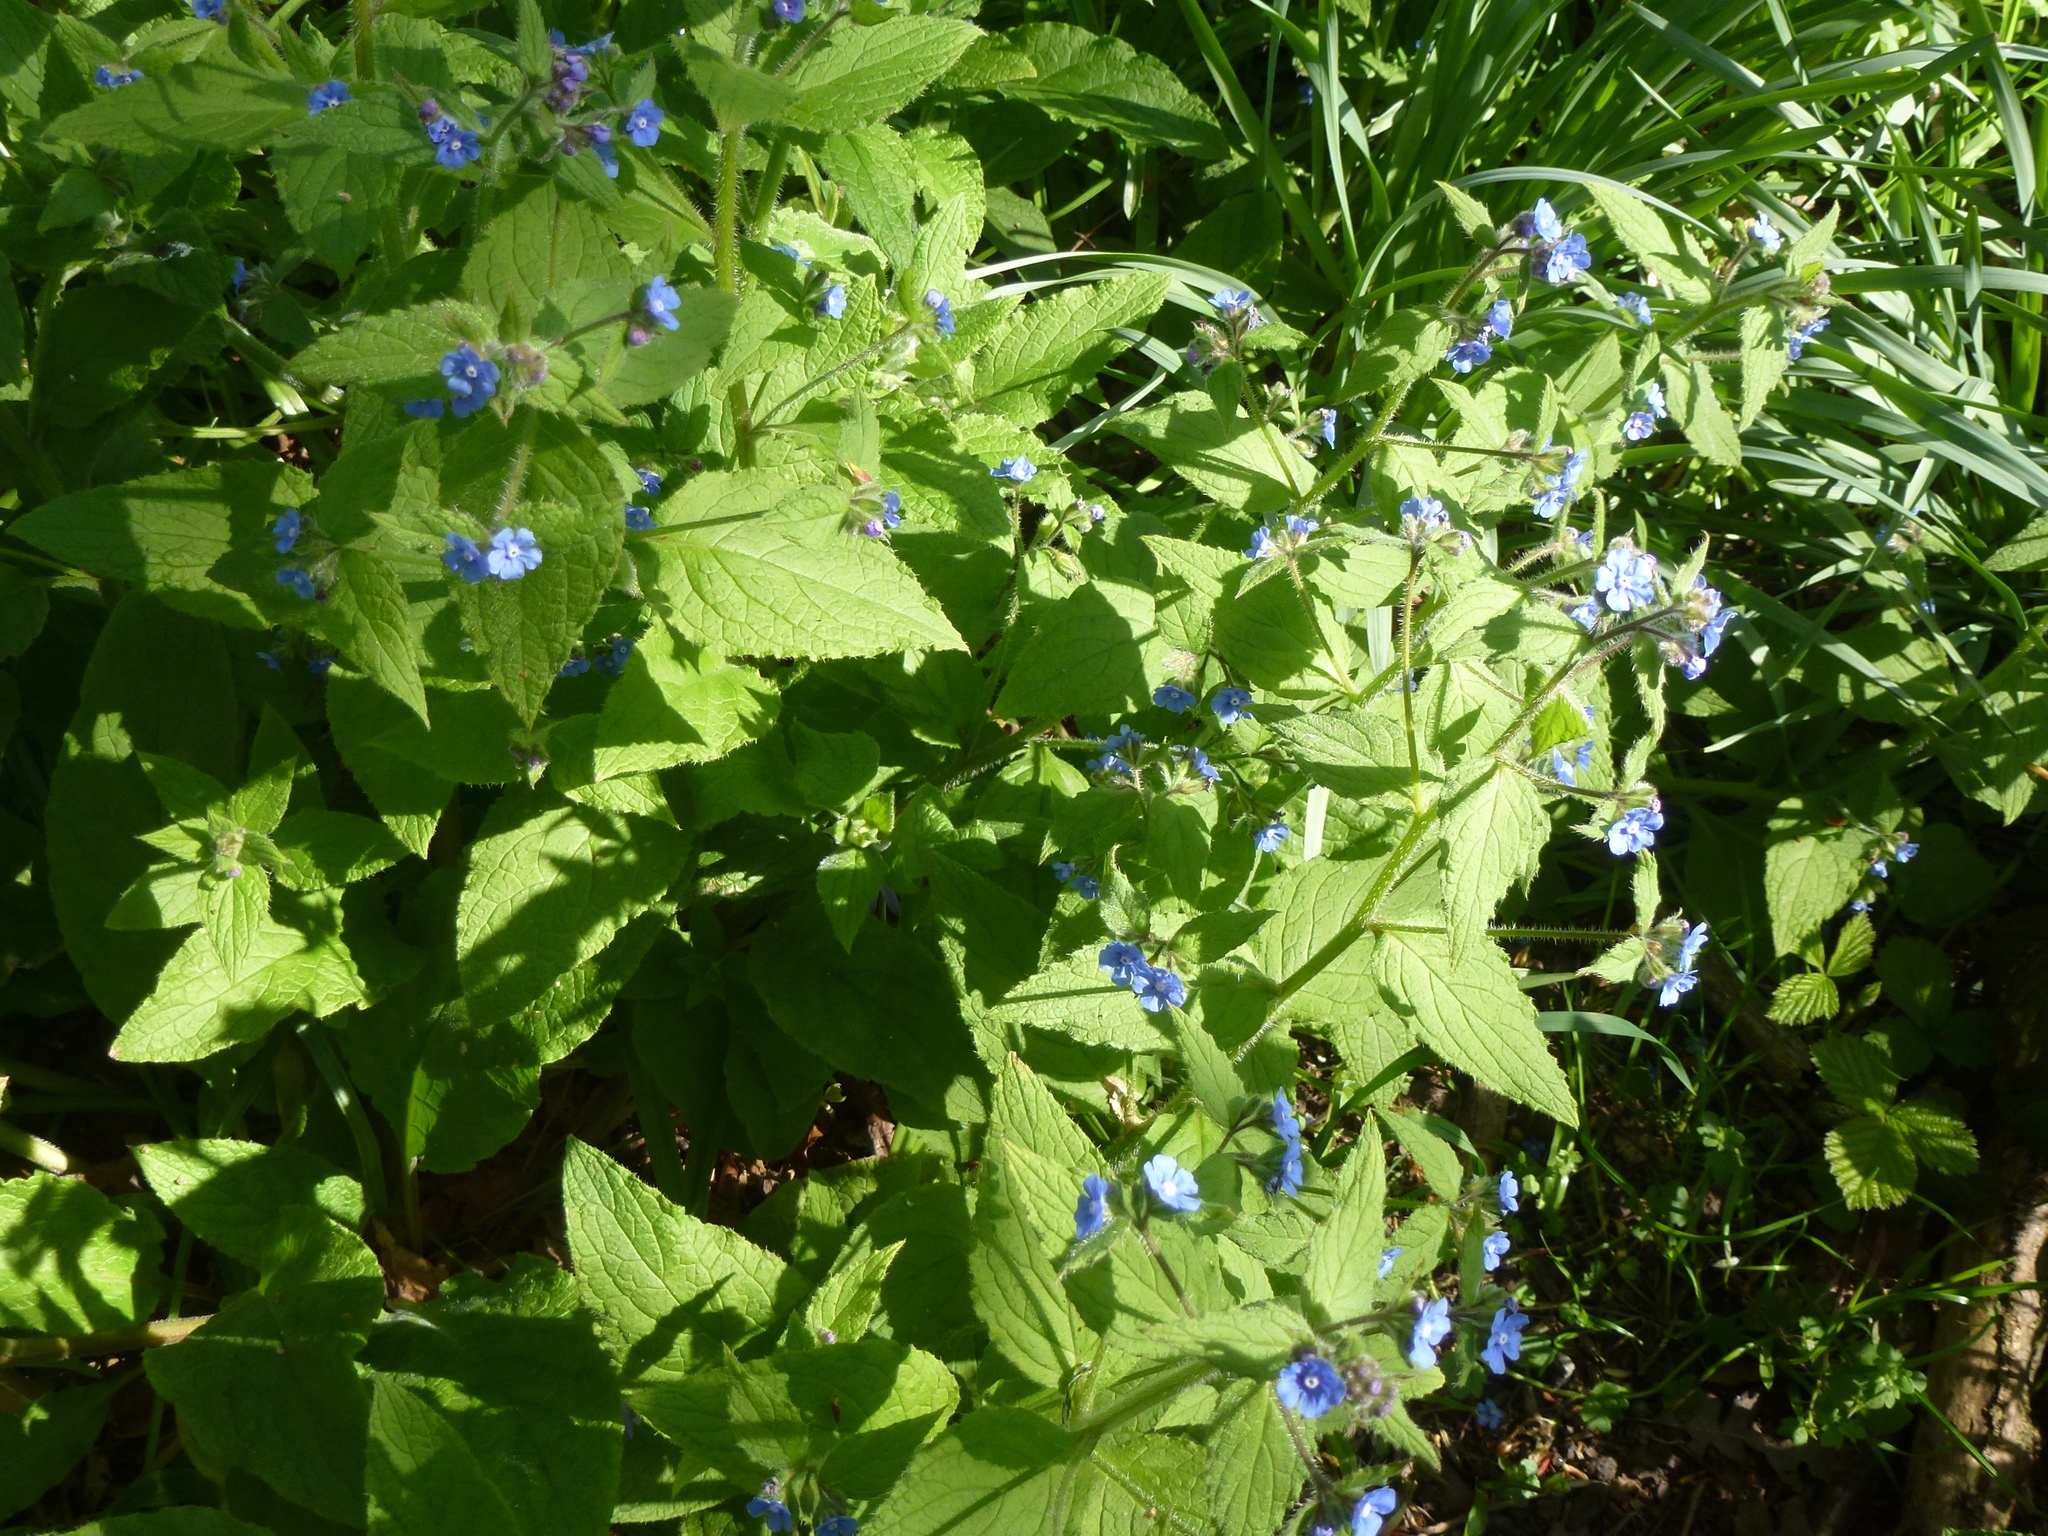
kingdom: Plantae
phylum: Tracheophyta
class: Magnoliopsida
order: Boraginales
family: Boraginaceae
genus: Pentaglottis
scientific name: Pentaglottis sempervirens
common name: Green alkanet
